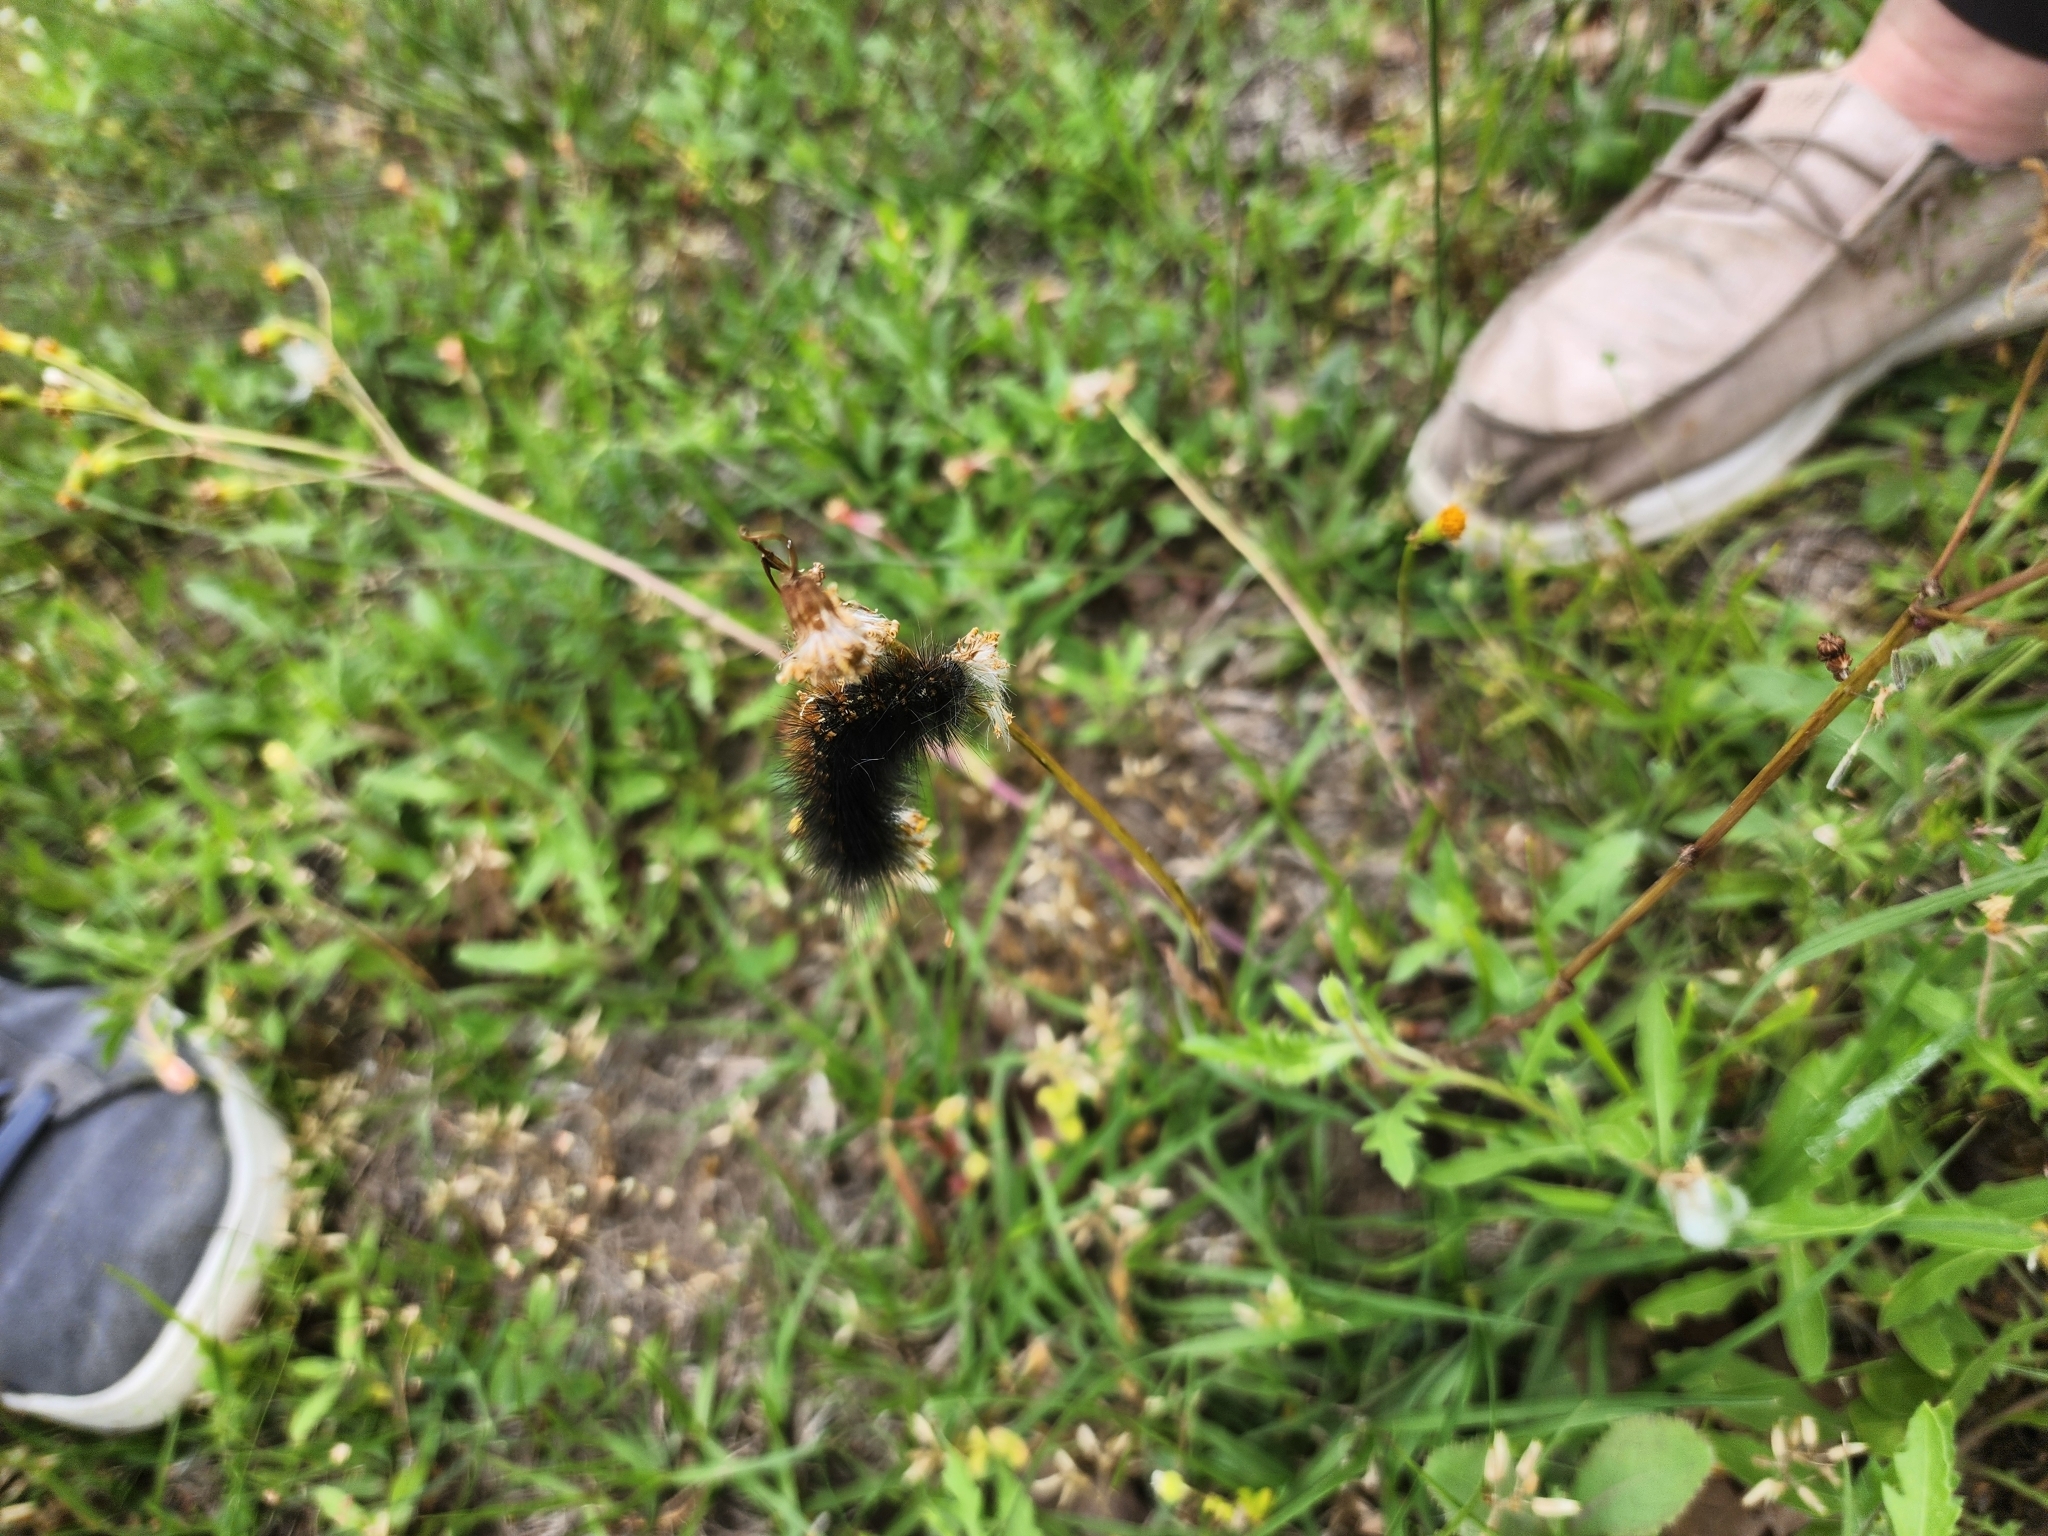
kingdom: Animalia
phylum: Arthropoda
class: Insecta
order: Lepidoptera
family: Erebidae
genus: Estigmene
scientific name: Estigmene acrea
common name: Salt marsh moth
